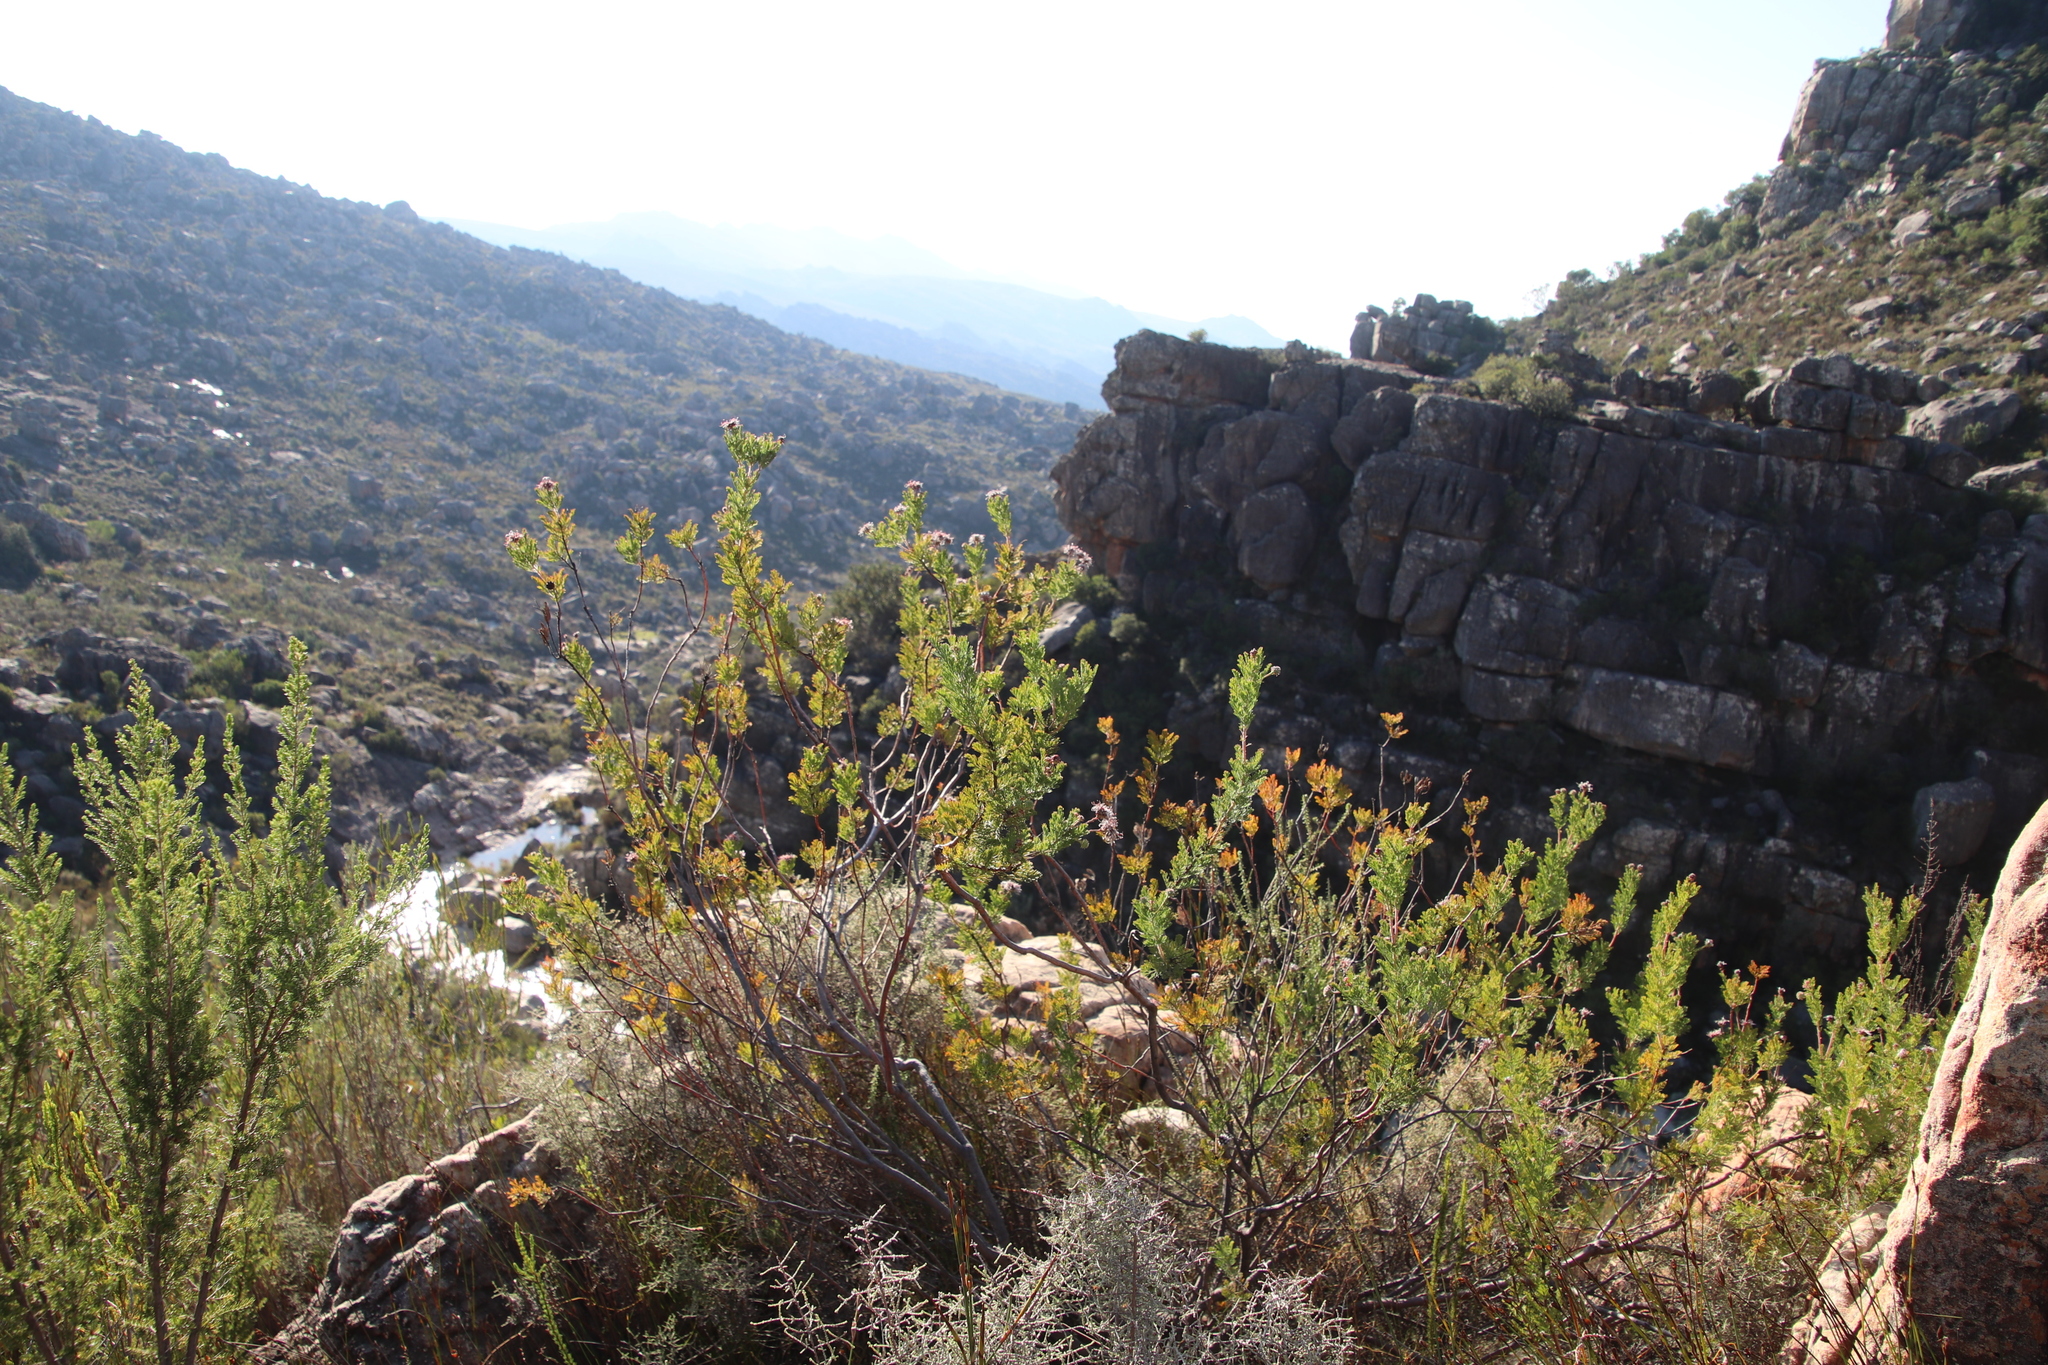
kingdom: Plantae
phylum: Tracheophyta
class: Magnoliopsida
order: Proteales
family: Proteaceae
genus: Serruria
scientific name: Serruria pedunculata
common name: Fan-leaf spiderhead
